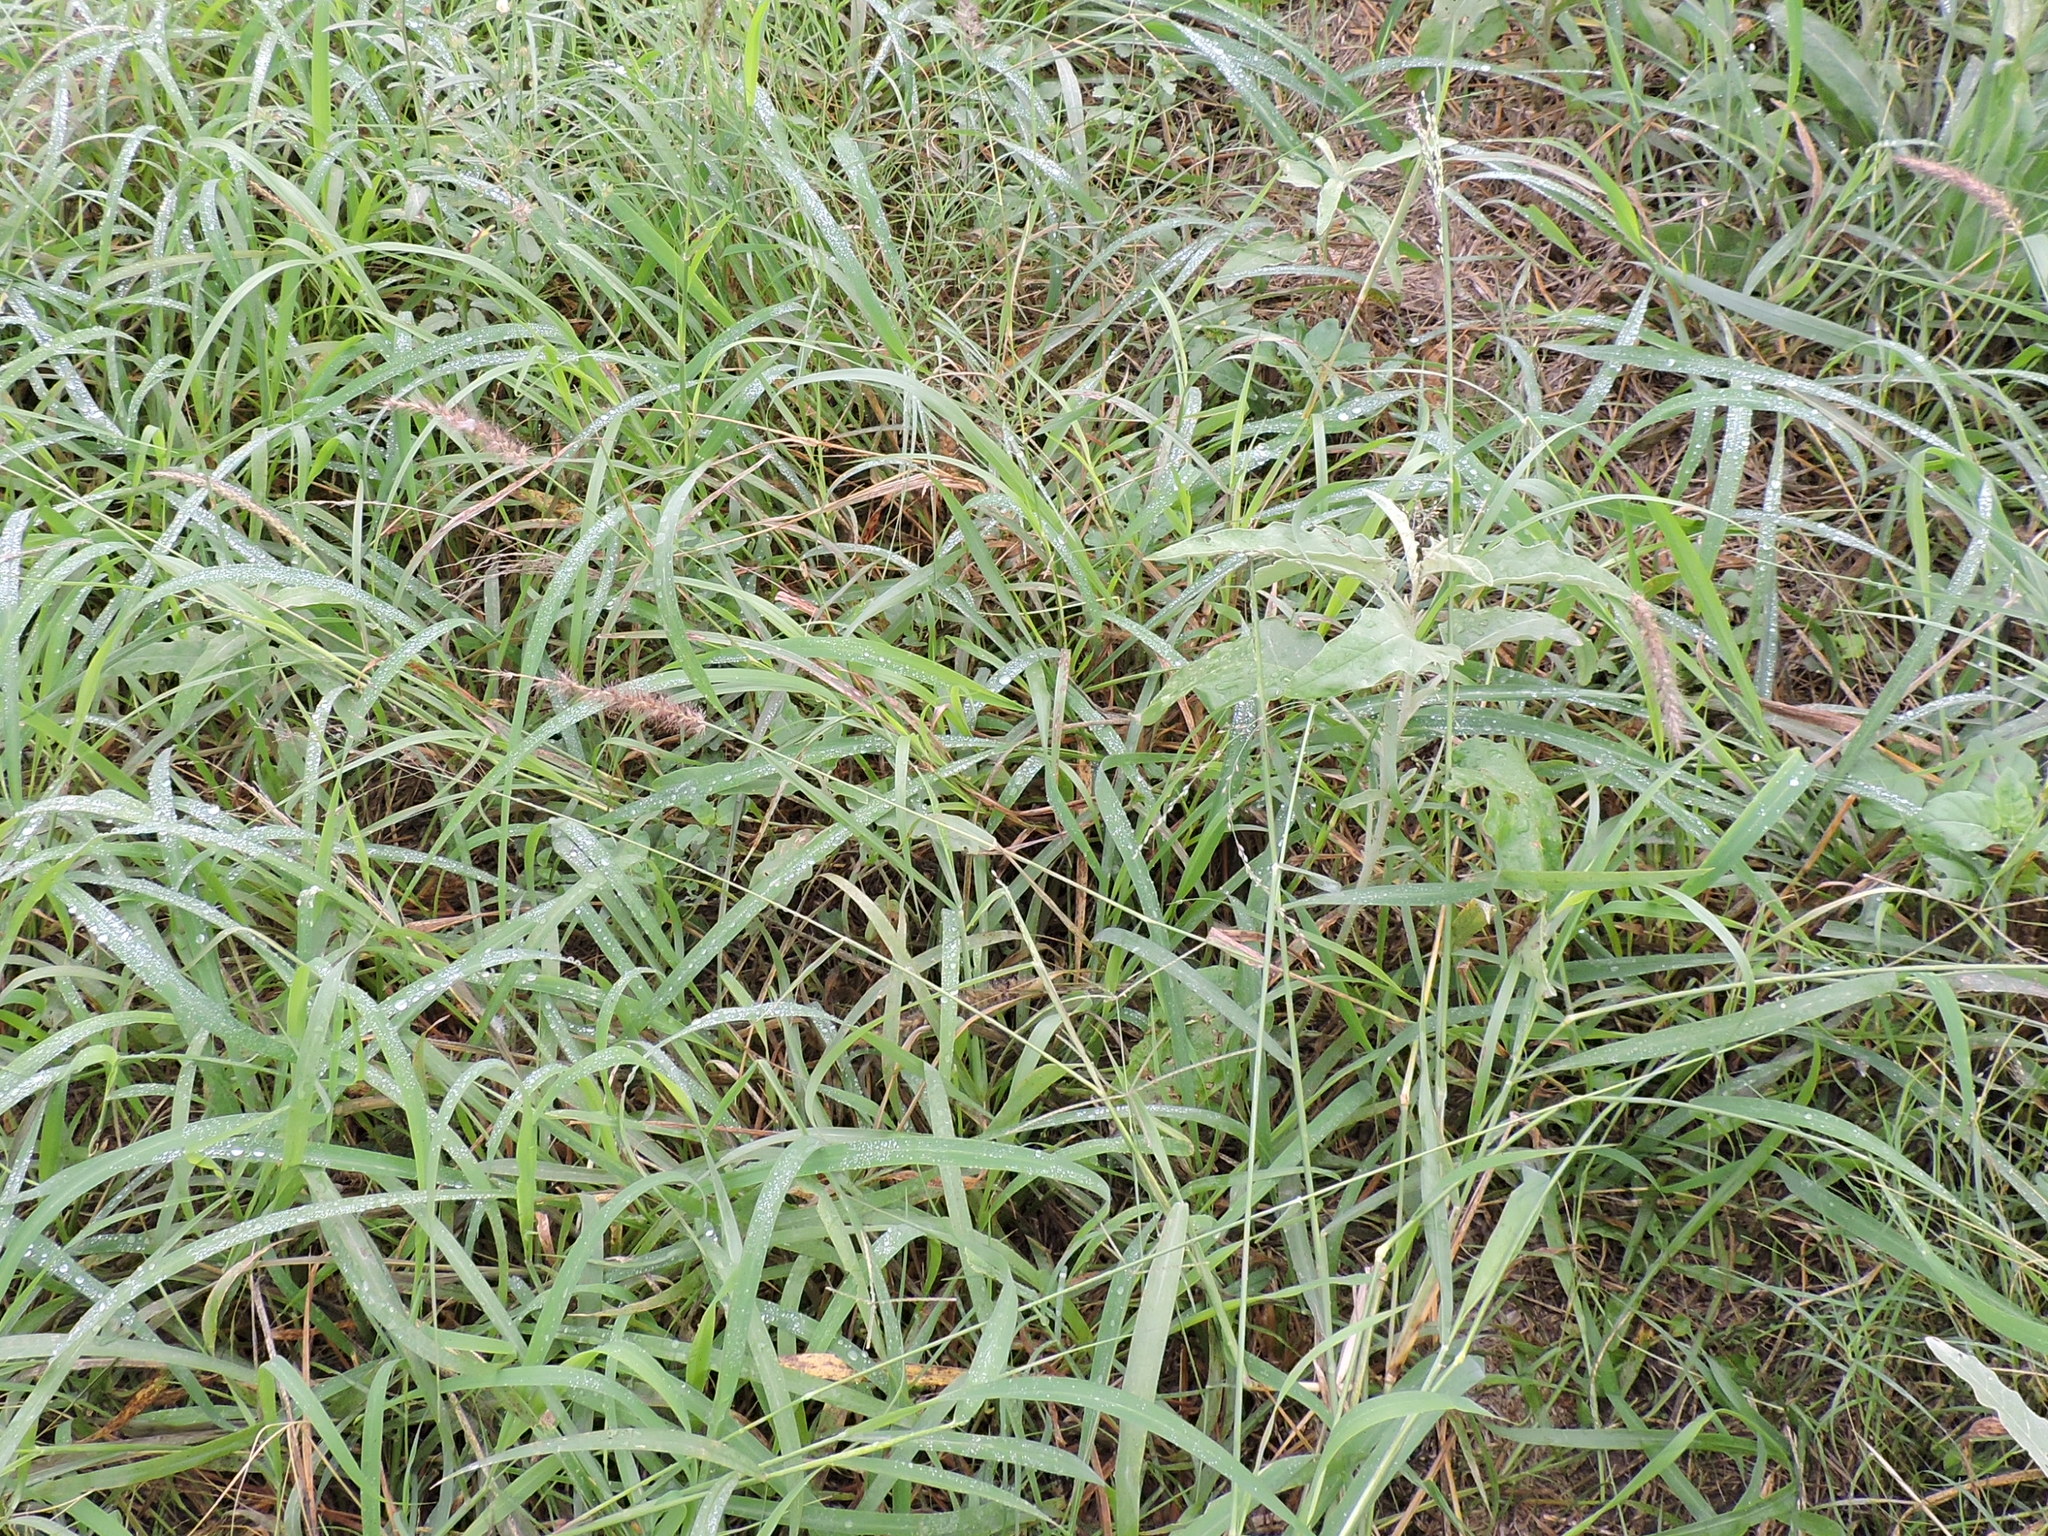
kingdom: Plantae
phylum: Tracheophyta
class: Liliopsida
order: Poales
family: Poaceae
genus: Cenchrus
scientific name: Cenchrus ciliaris
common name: Buffelgrass
